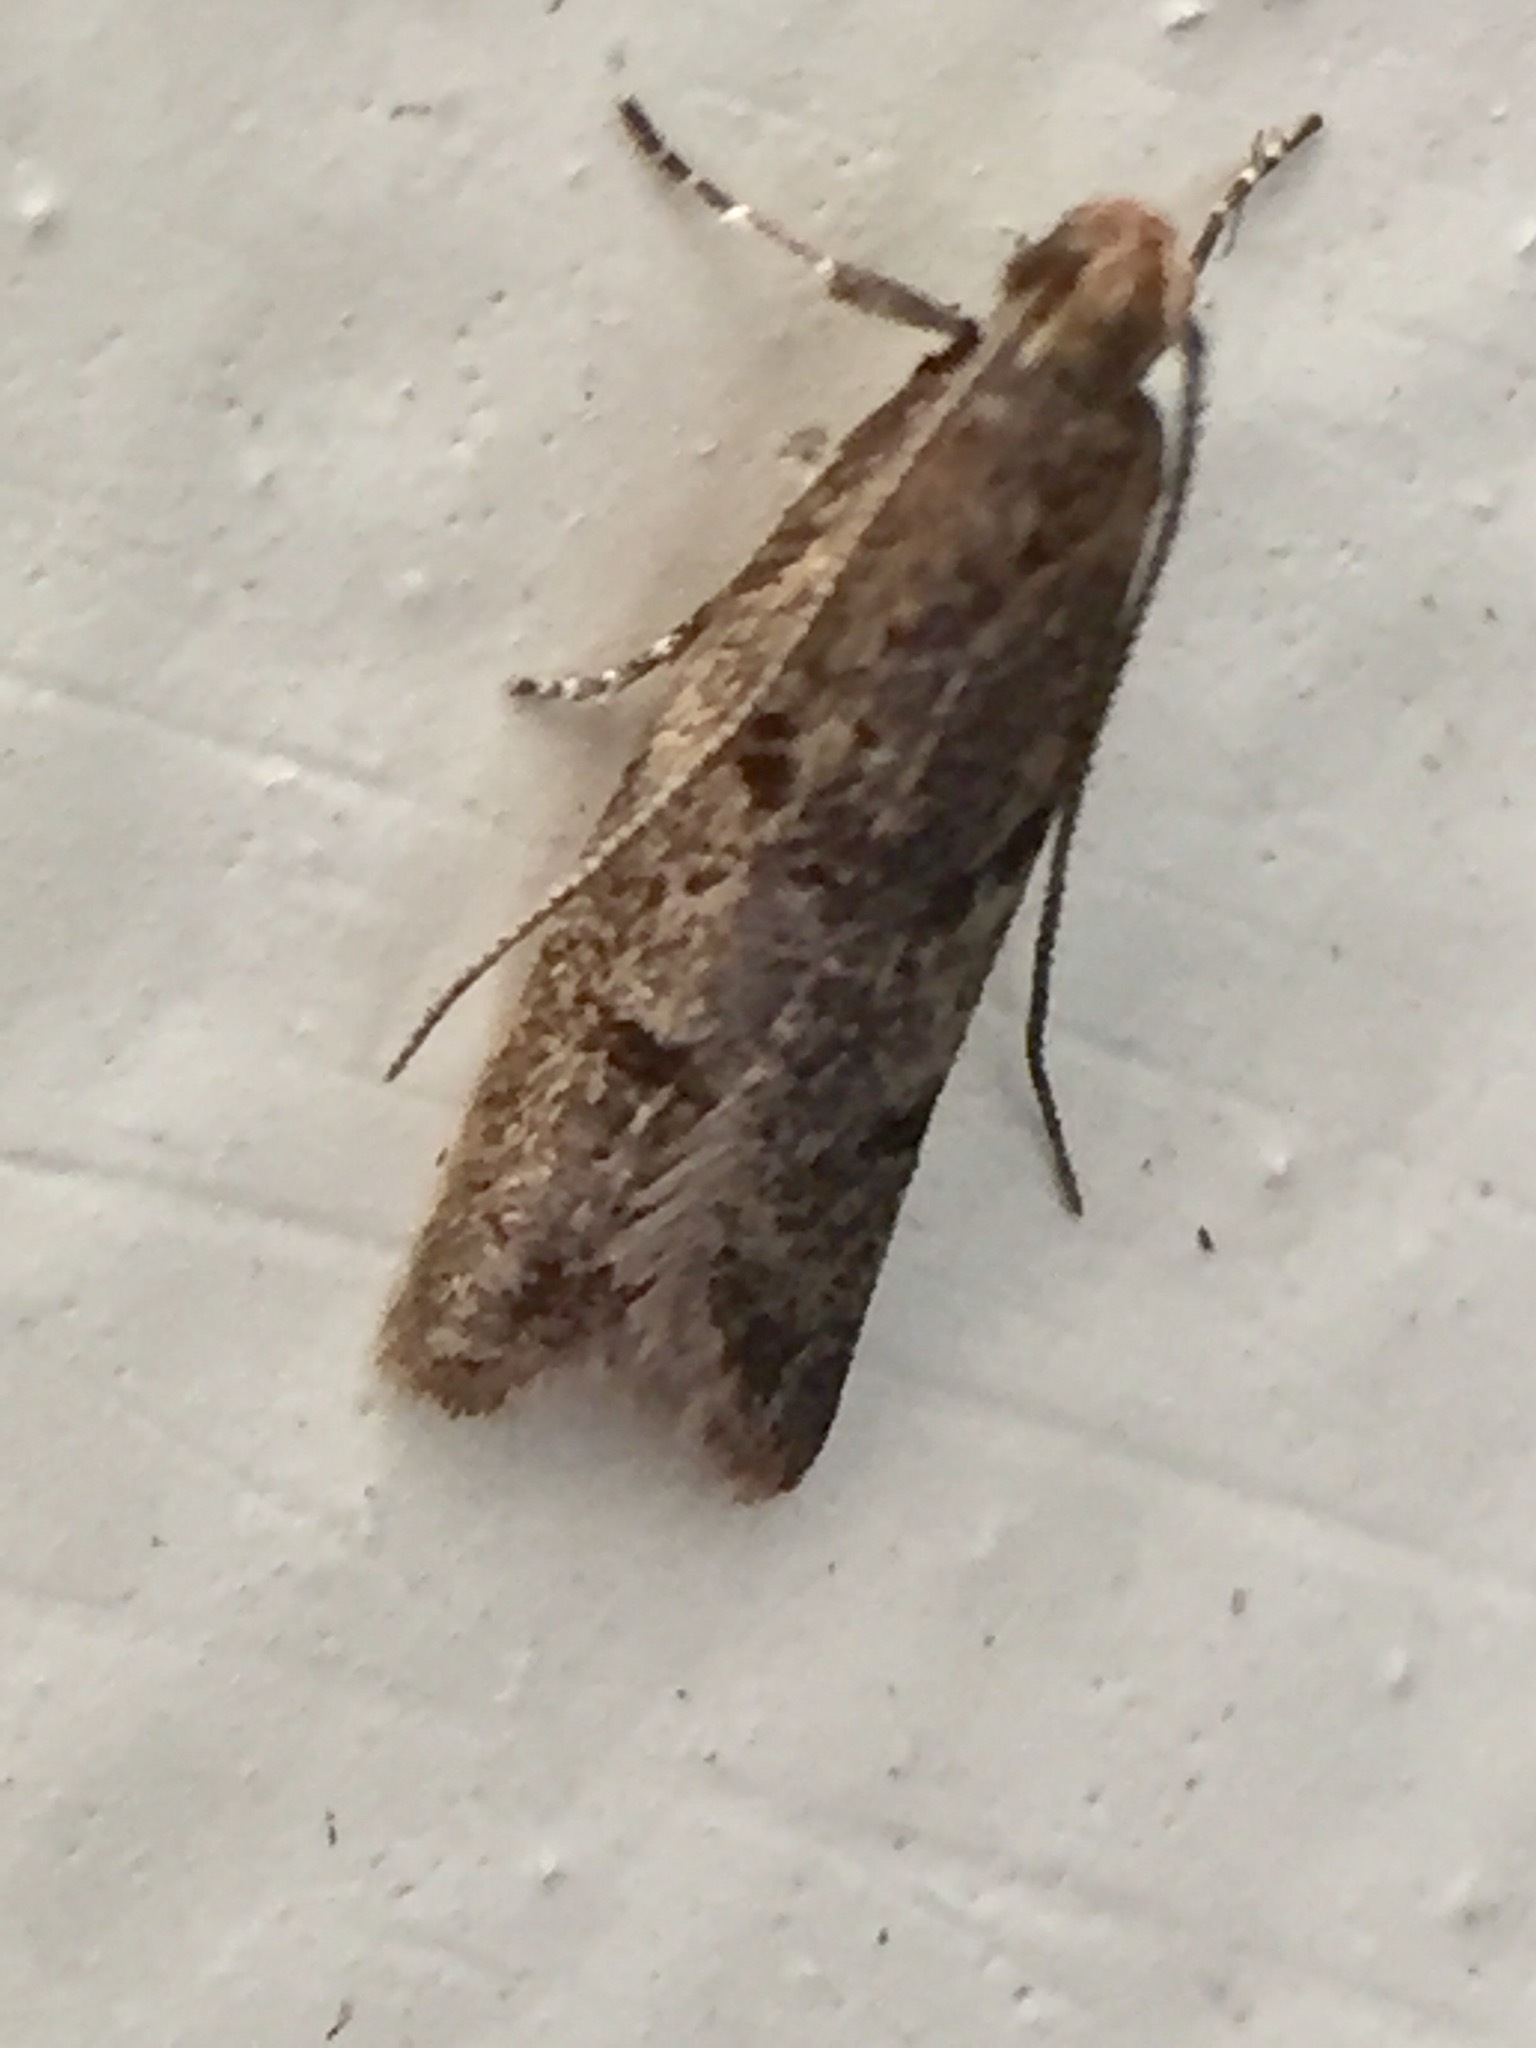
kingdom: Animalia
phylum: Arthropoda
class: Insecta
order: Lepidoptera
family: Oecophoridae
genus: Gymnobathra
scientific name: Gymnobathra tholodella
